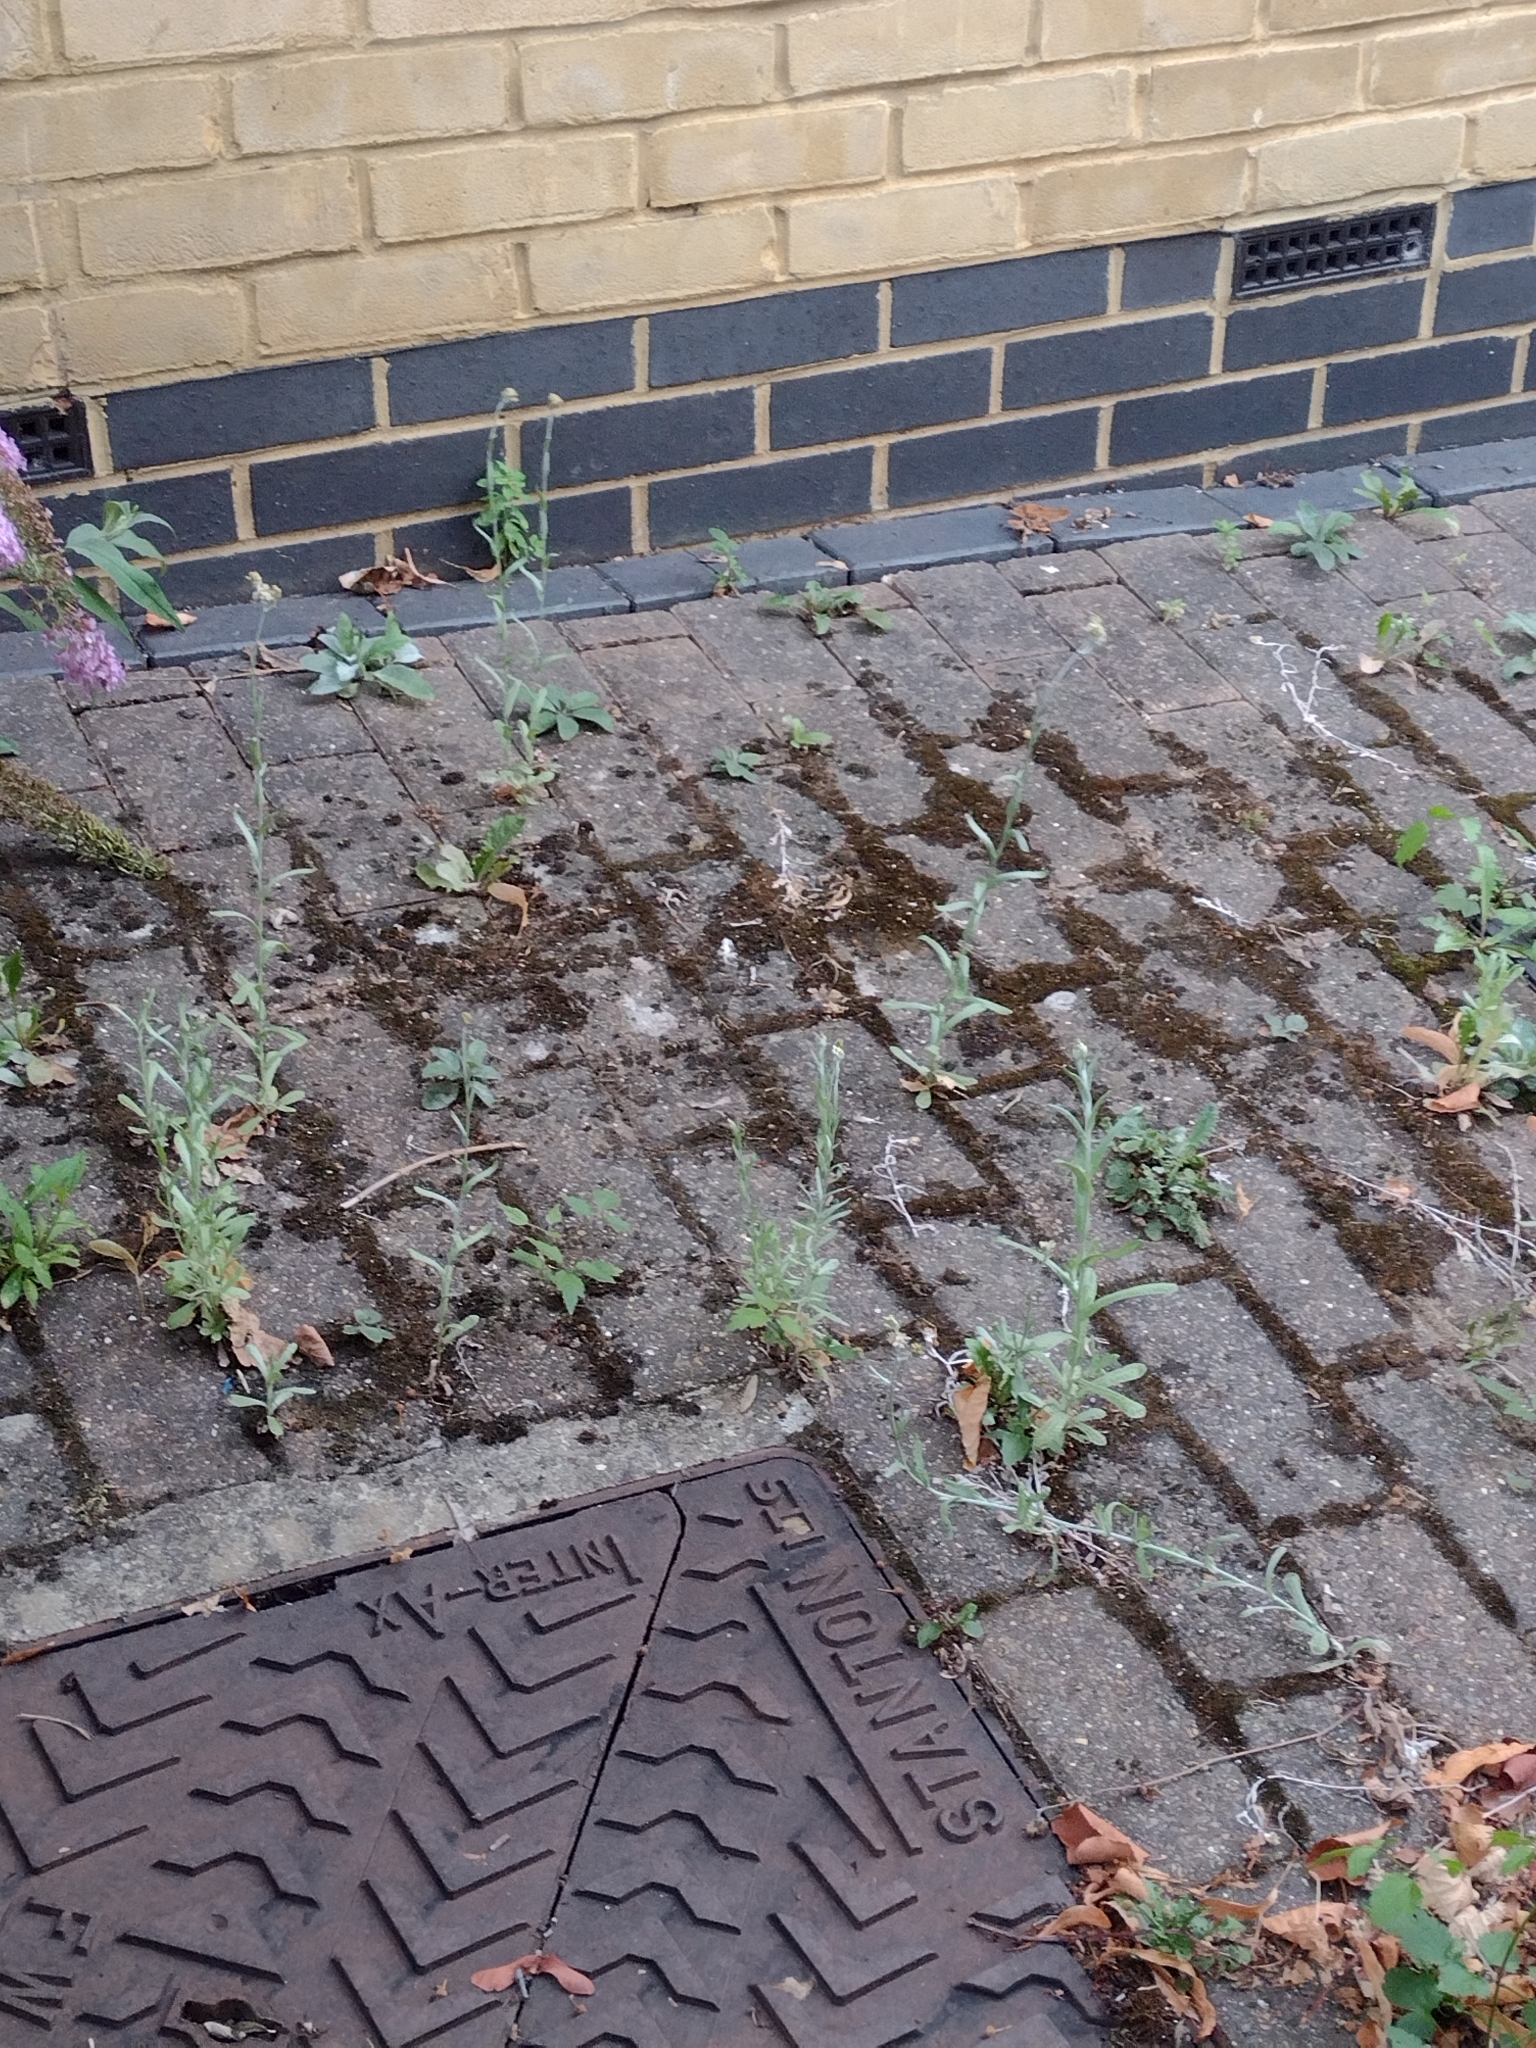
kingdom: Plantae
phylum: Tracheophyta
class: Magnoliopsida
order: Asterales
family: Asteraceae
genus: Helichrysum
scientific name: Helichrysum luteoalbum
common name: Daisy
